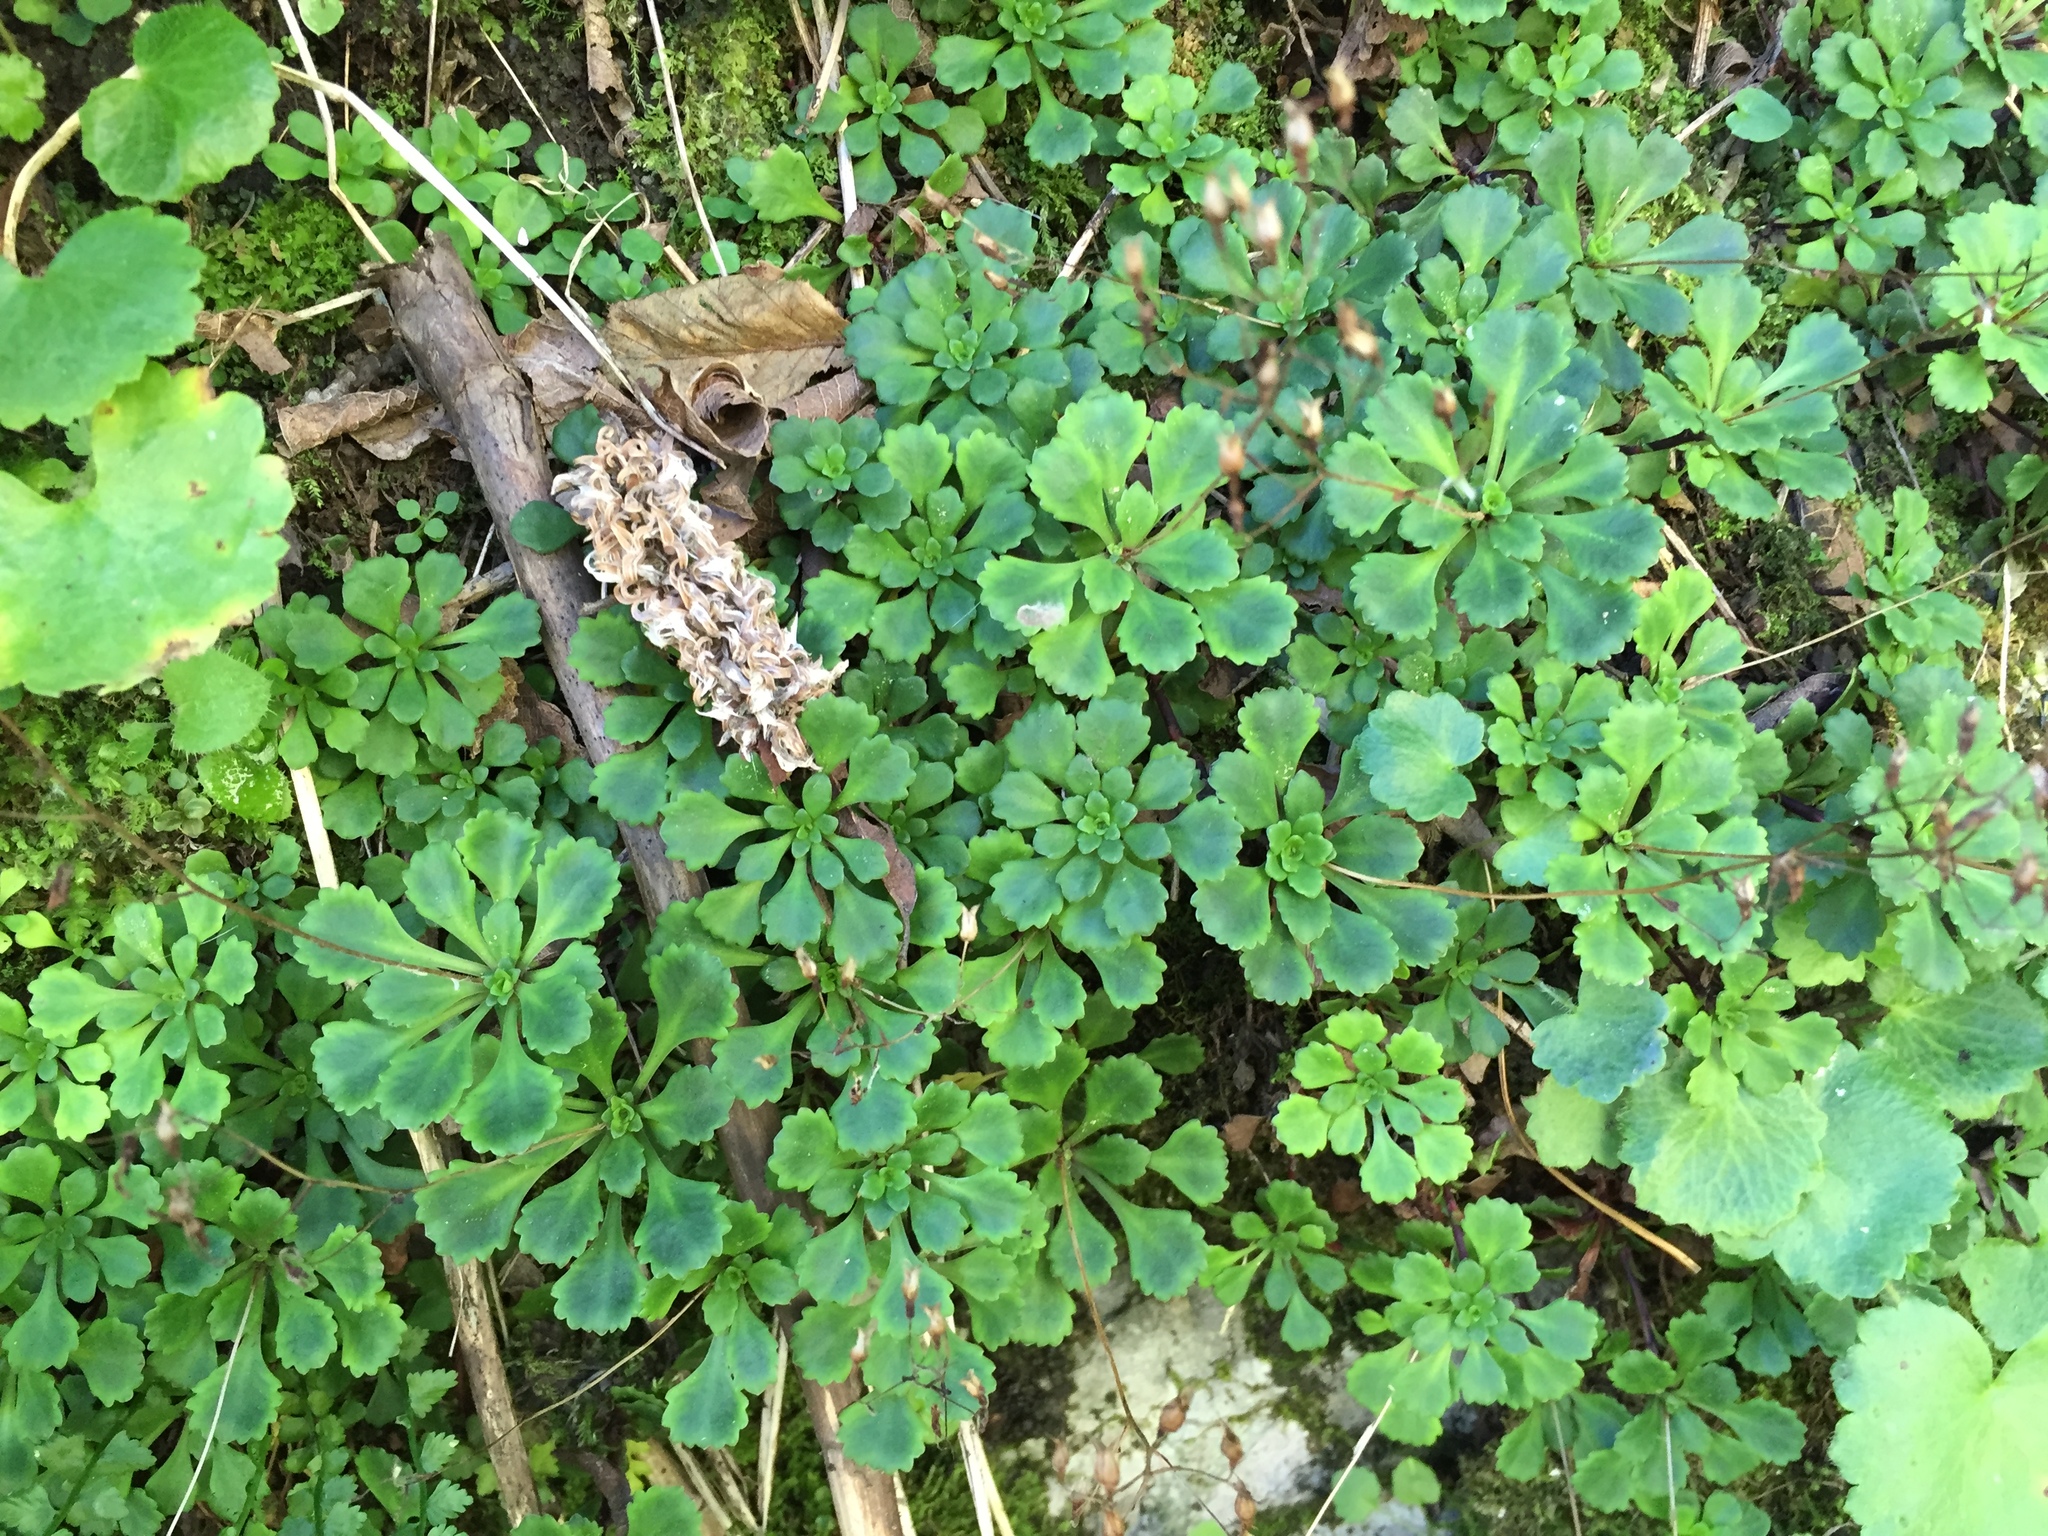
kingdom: Plantae
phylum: Tracheophyta
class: Magnoliopsida
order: Saxifragales
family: Saxifragaceae
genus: Saxifraga
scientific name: Saxifraga cuneifolia
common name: Lesser londonpride
